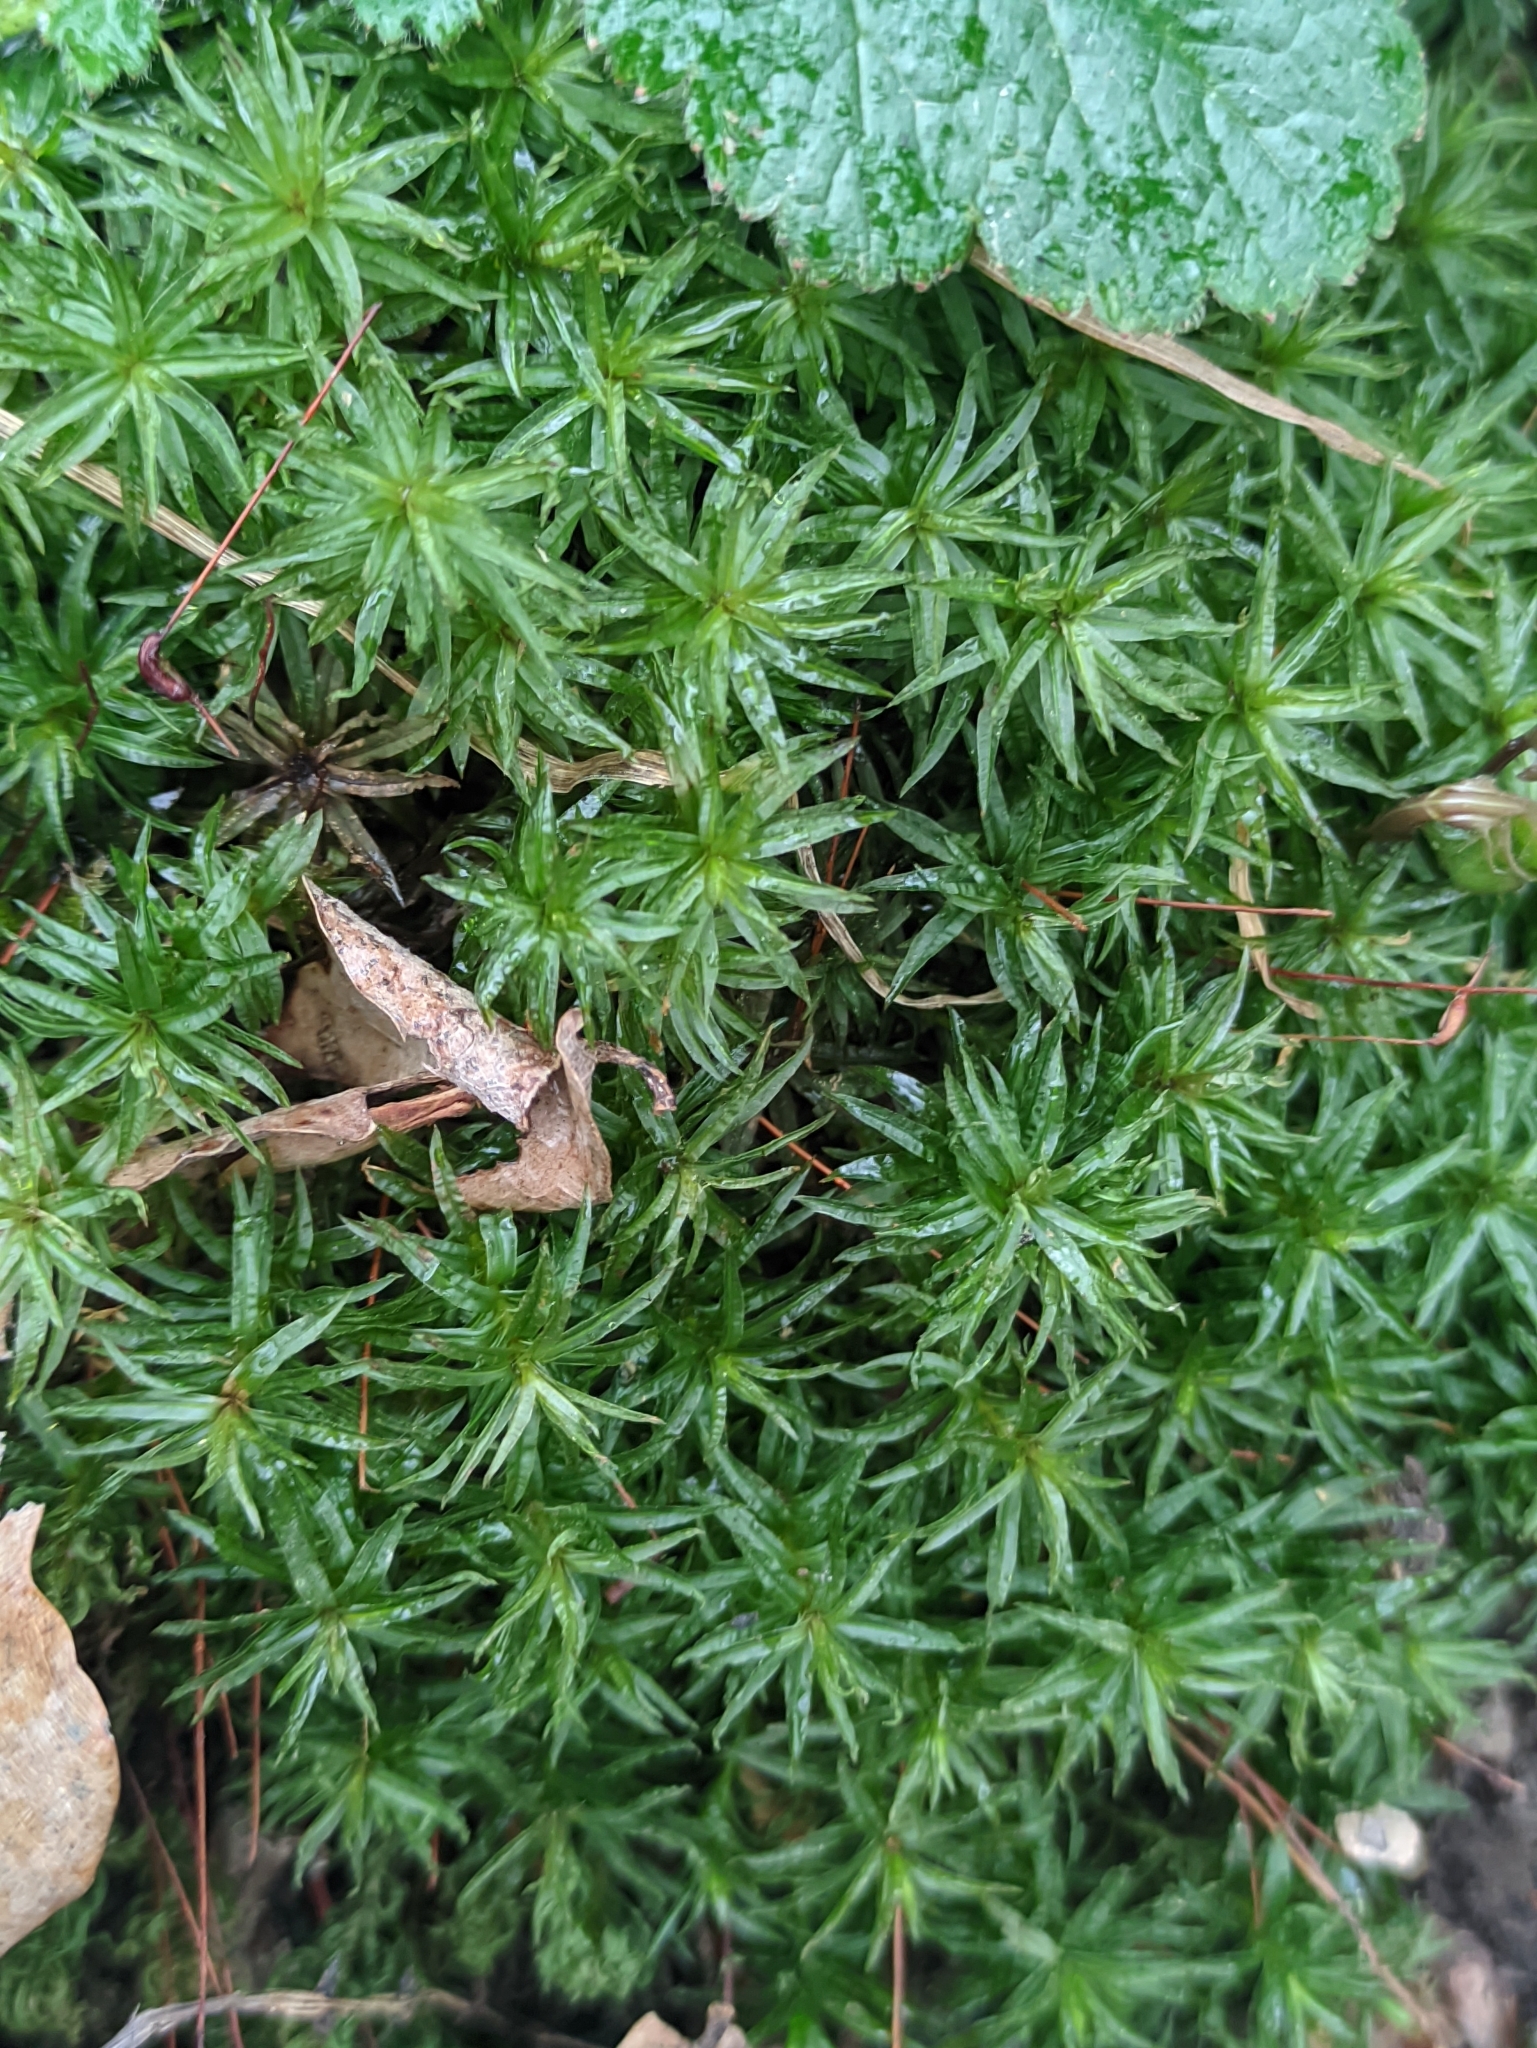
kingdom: Plantae
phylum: Bryophyta
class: Polytrichopsida
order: Polytrichales
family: Polytrichaceae
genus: Atrichum
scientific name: Atrichum undulatum
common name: Common smoothcap
